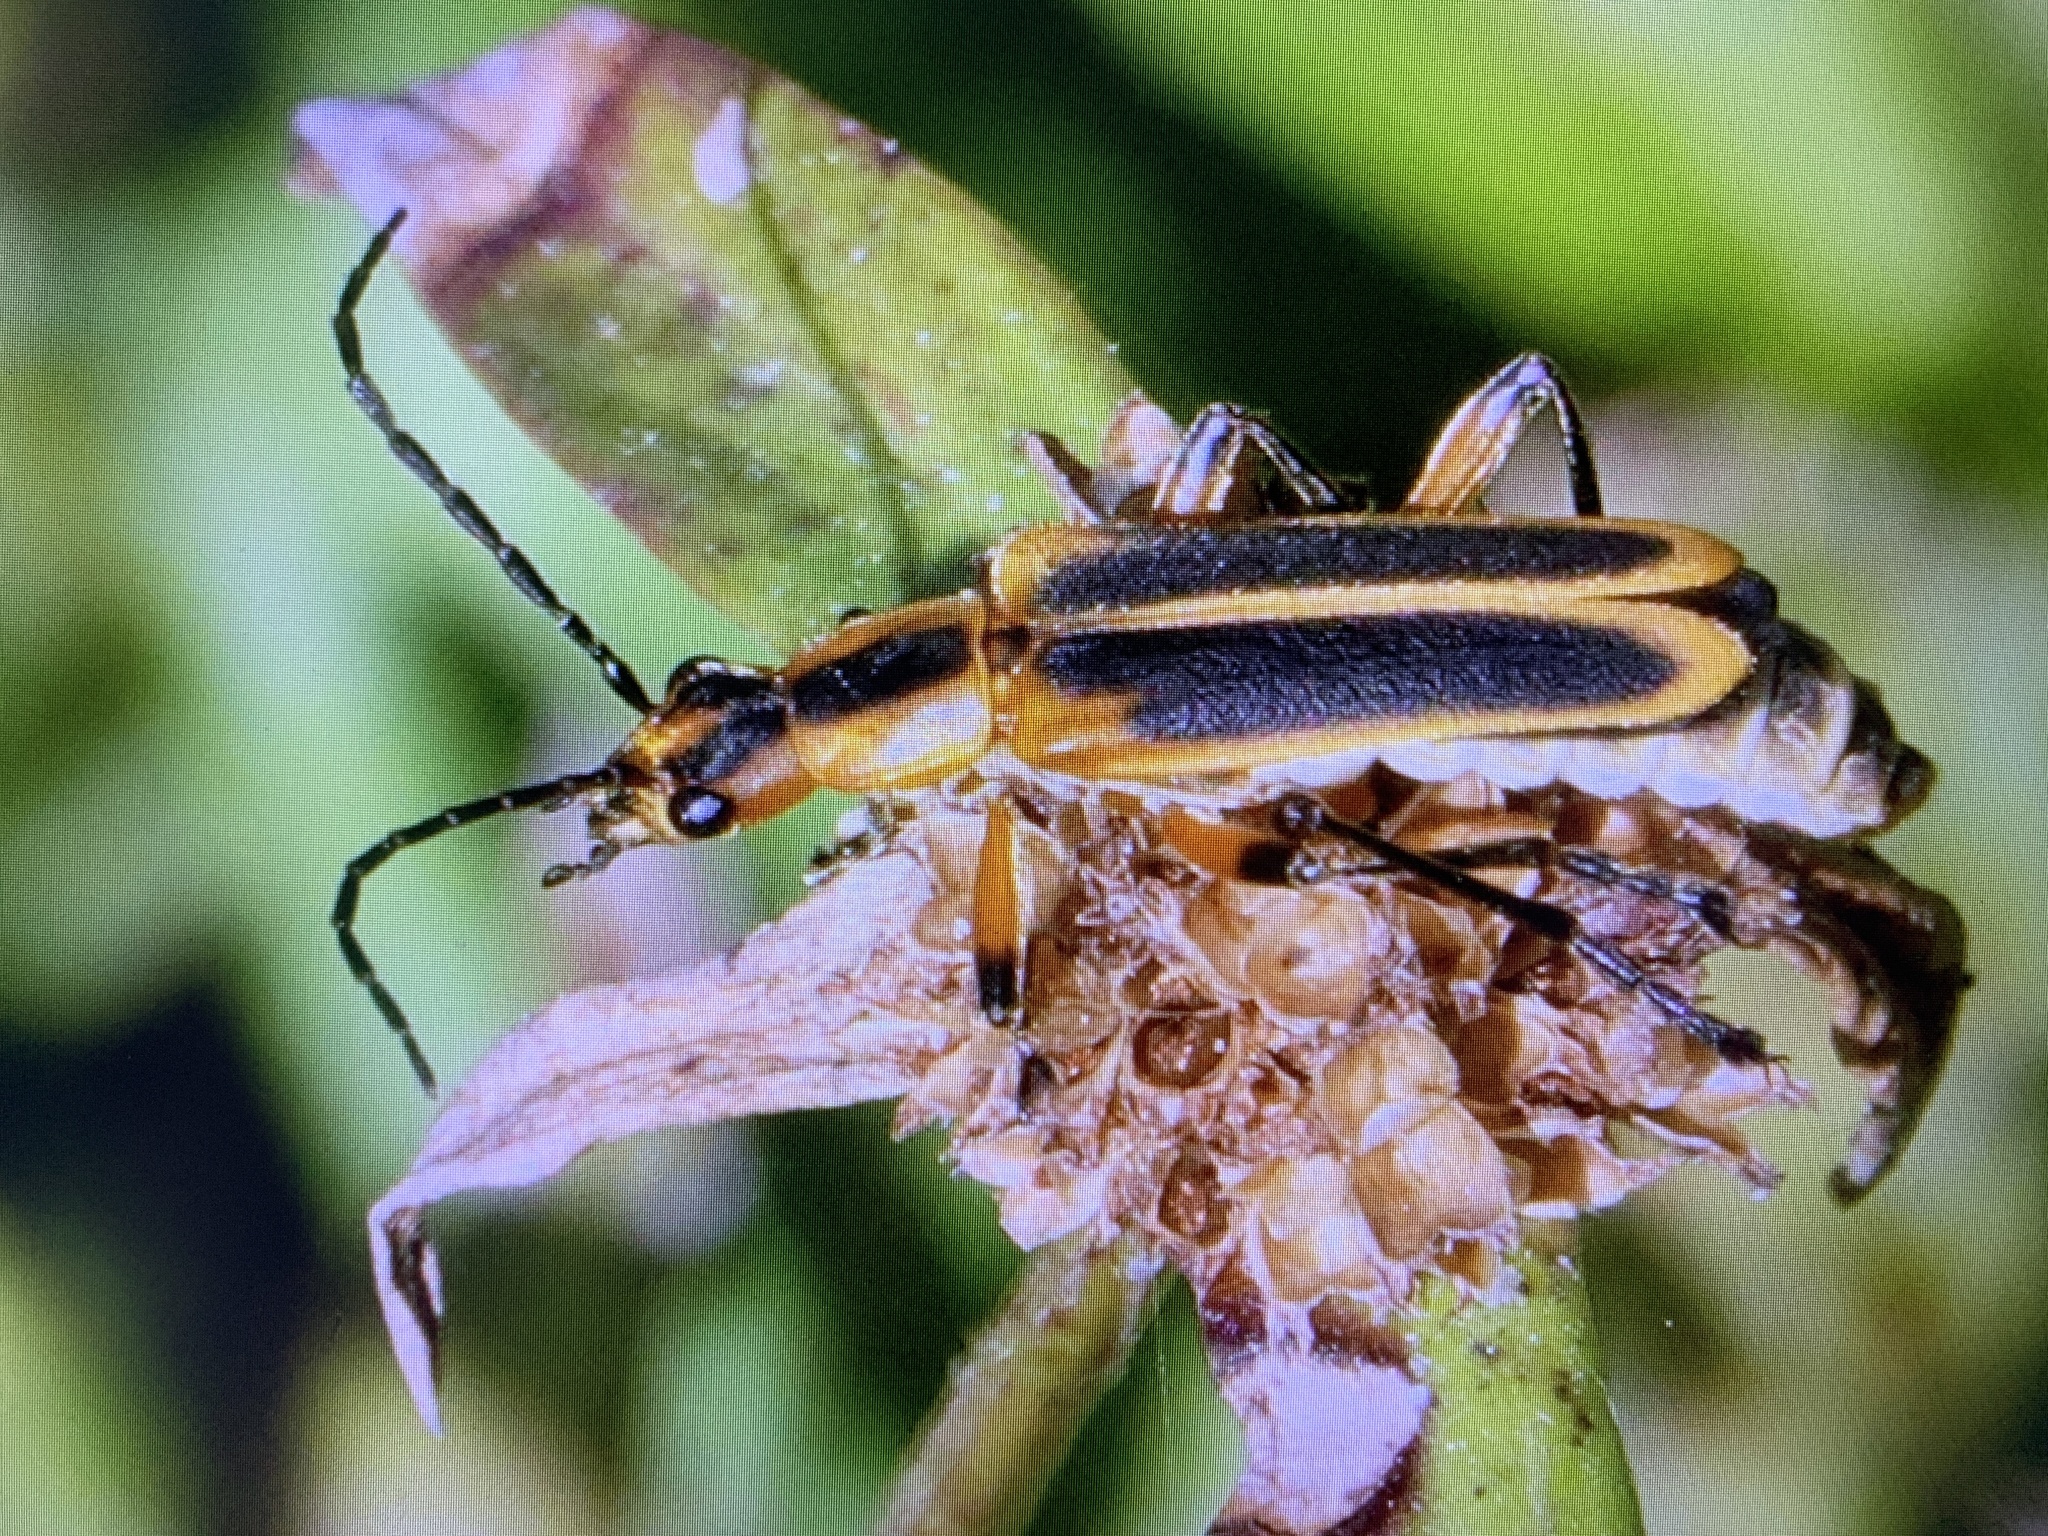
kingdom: Animalia
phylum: Arthropoda
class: Insecta
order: Coleoptera
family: Cantharidae
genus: Chauliognathus
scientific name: Chauliognathus marginatus
